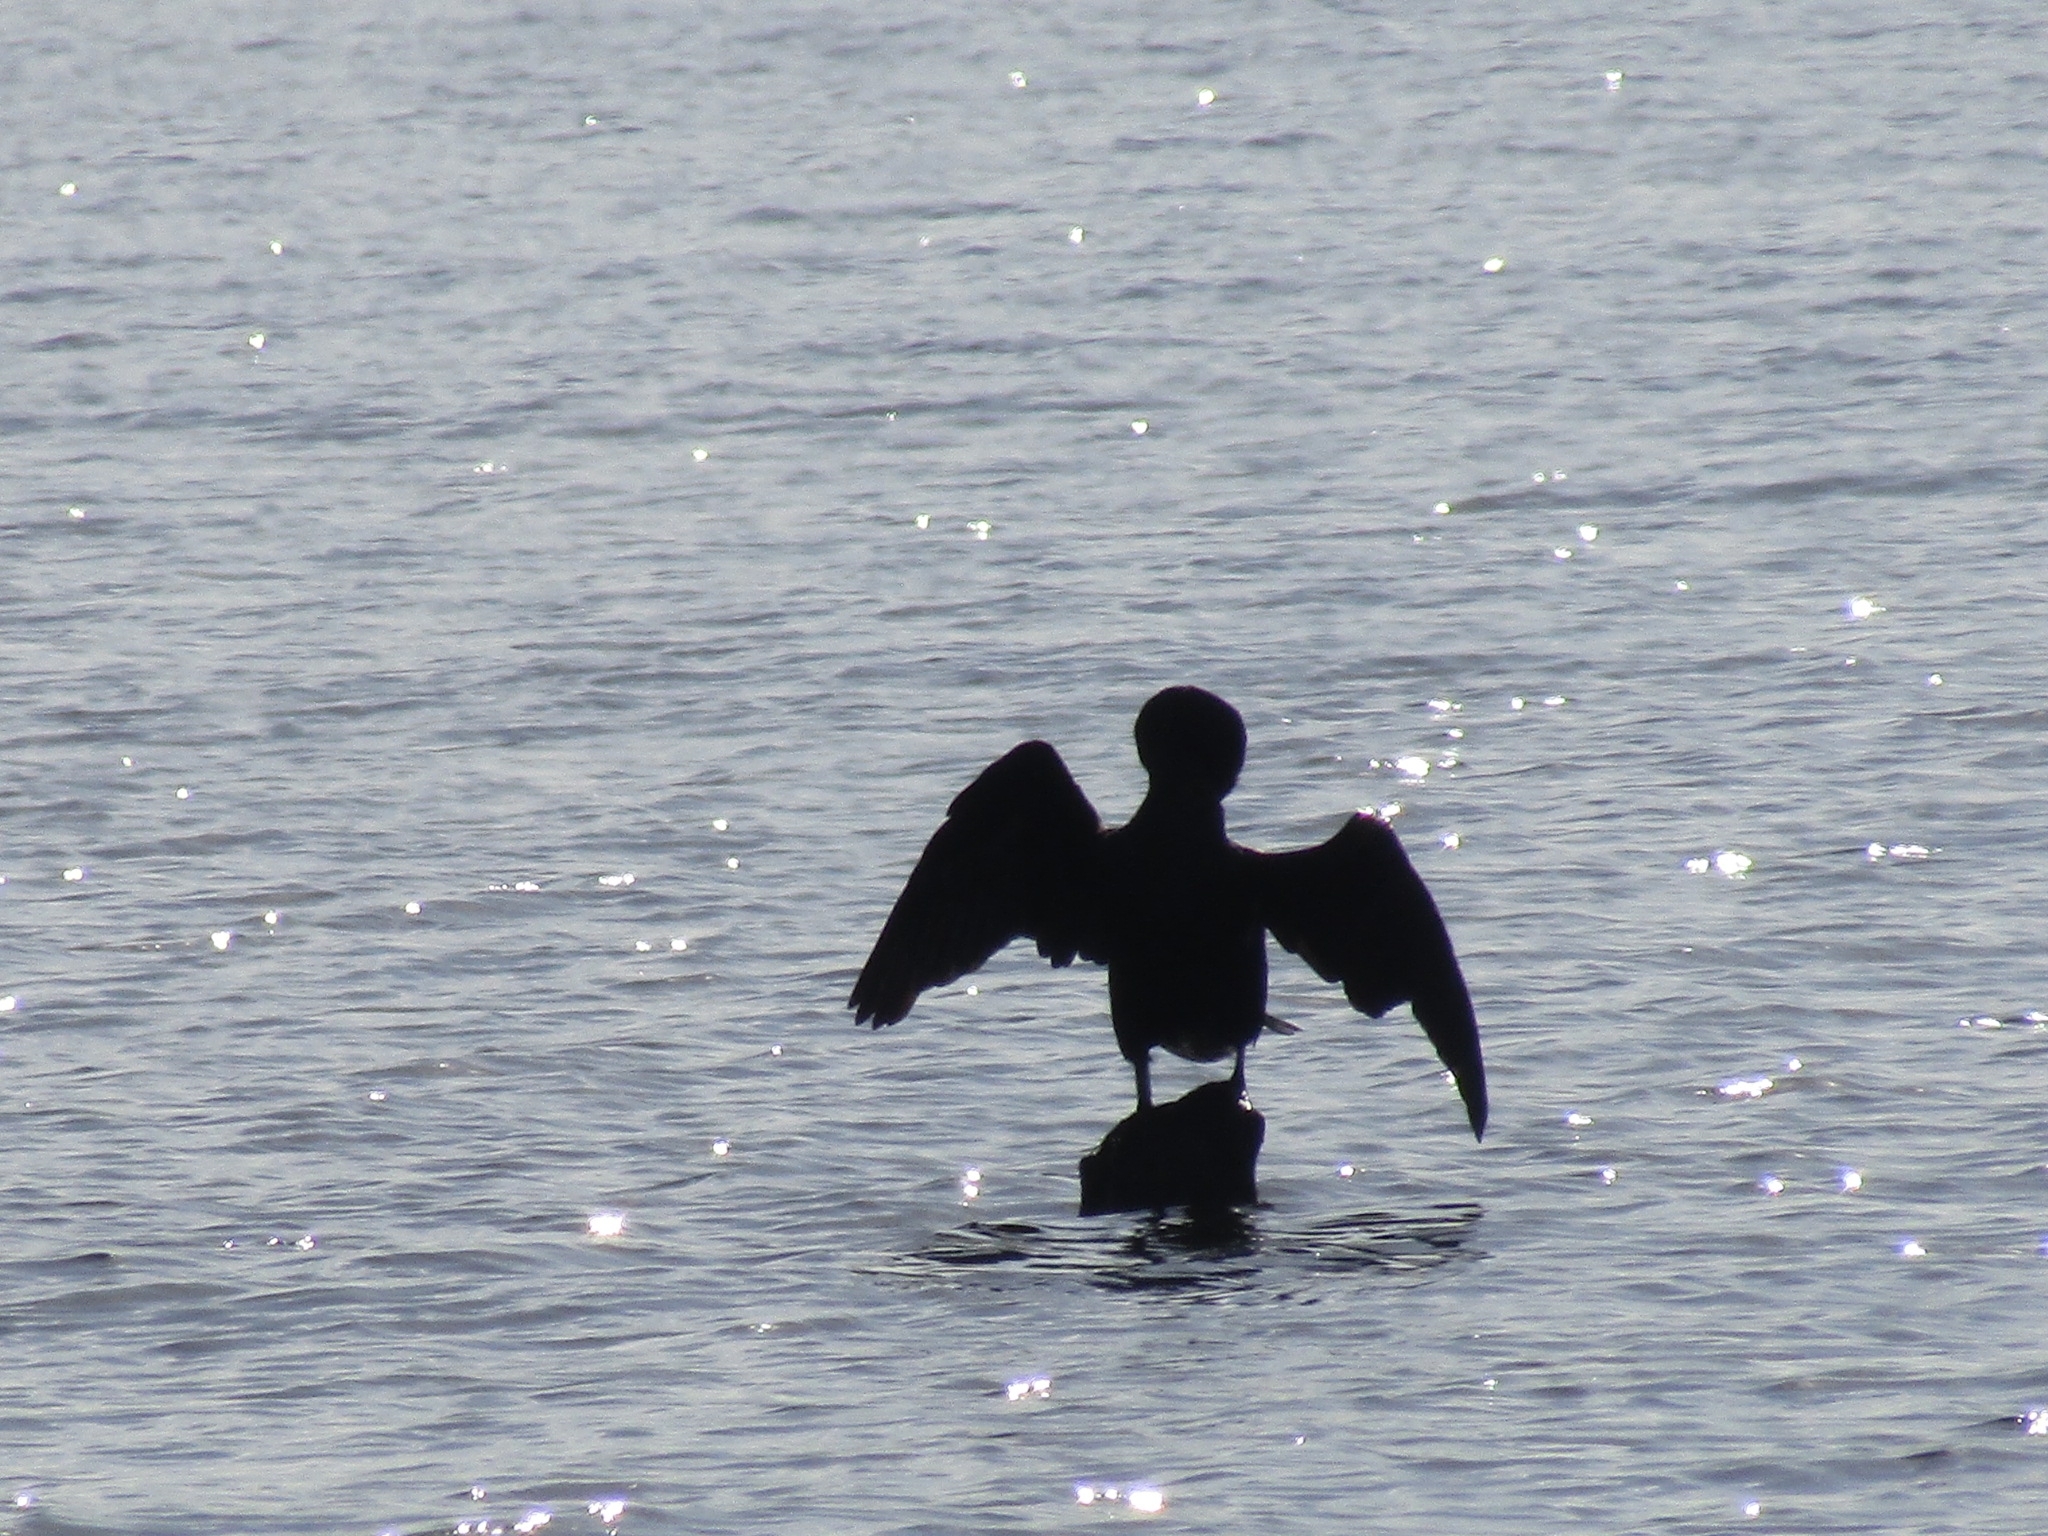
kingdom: Animalia
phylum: Chordata
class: Aves
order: Suliformes
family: Phalacrocoracidae
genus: Phalacrocorax
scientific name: Phalacrocorax auritus
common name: Double-crested cormorant
